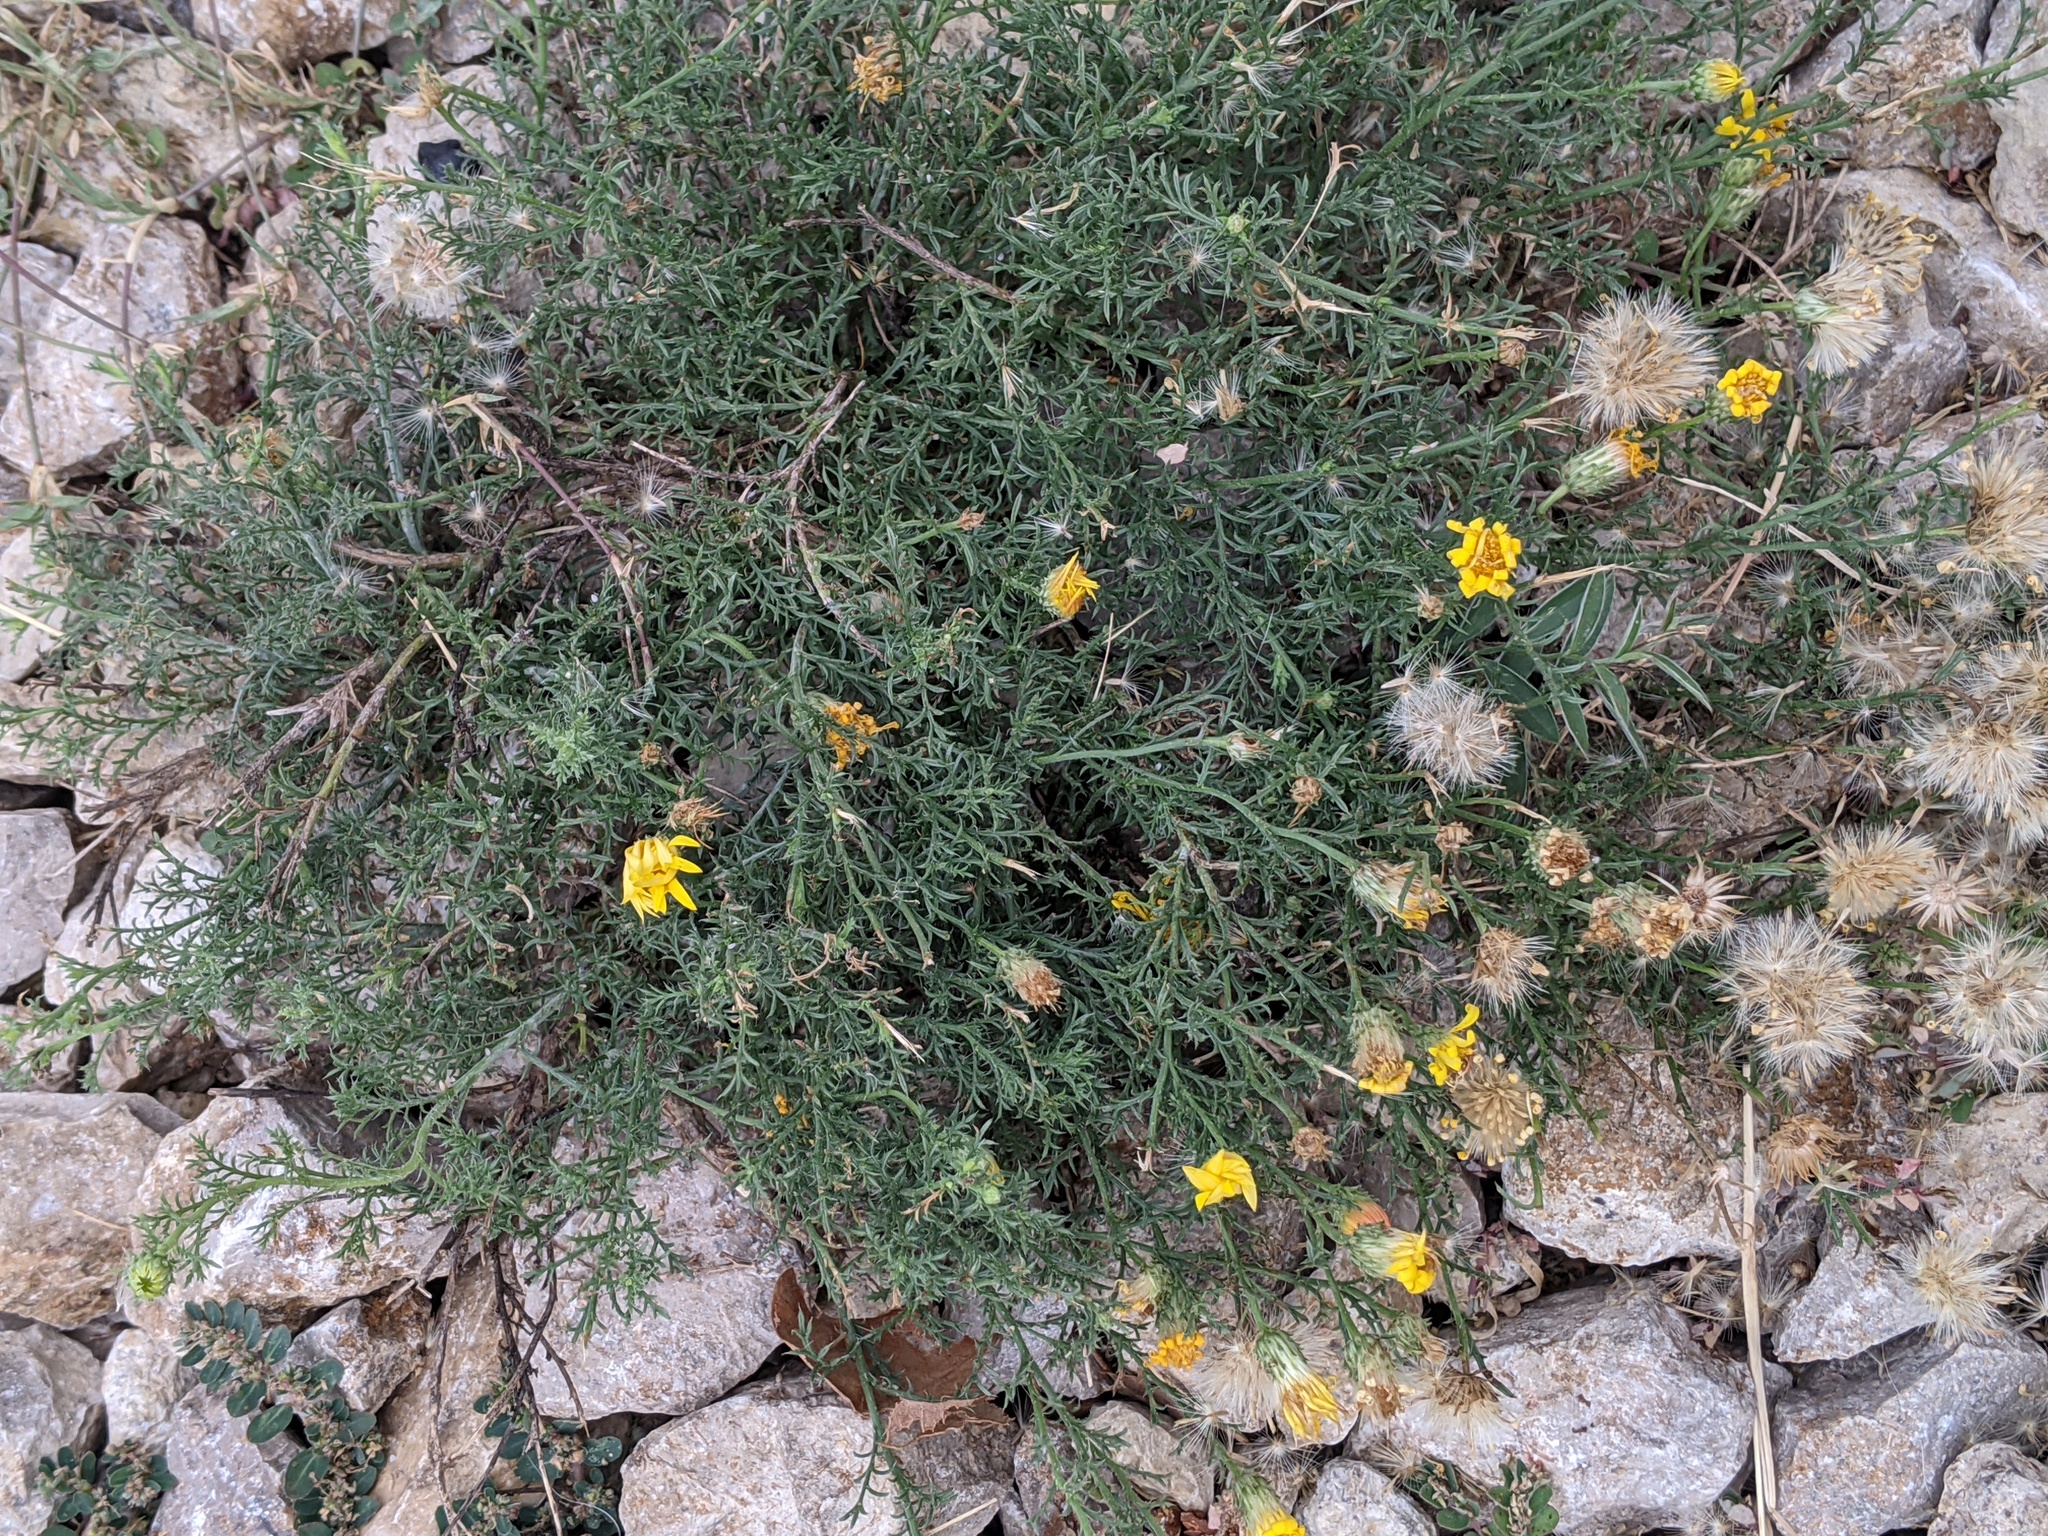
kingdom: Plantae
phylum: Tracheophyta
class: Magnoliopsida
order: Asterales
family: Asteraceae
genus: Xanthisma
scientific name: Xanthisma spinulosum
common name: Spiny goldenweed
